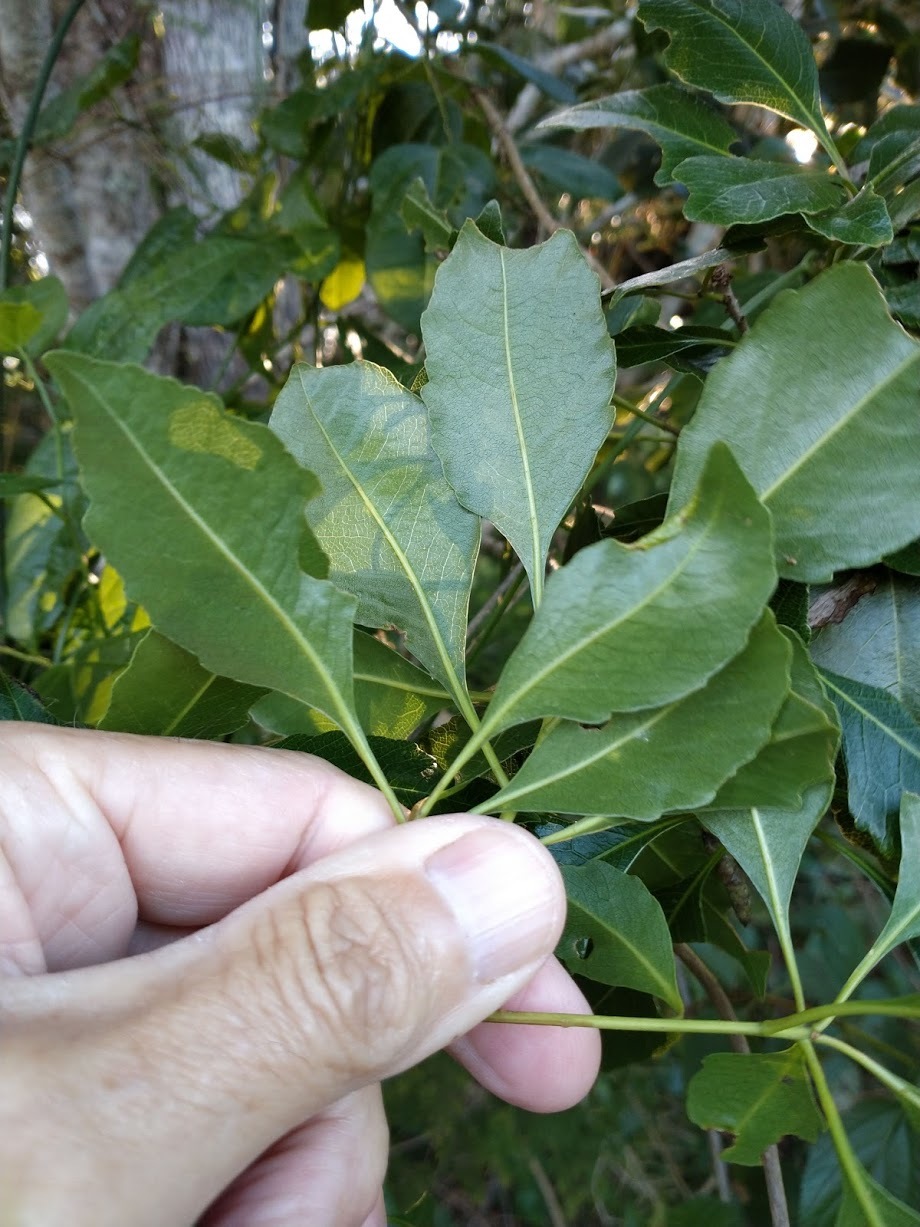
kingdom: Plantae
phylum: Tracheophyta
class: Magnoliopsida
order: Apiales
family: Pittosporaceae
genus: Auranticarpa
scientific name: Auranticarpa rhombifolia
